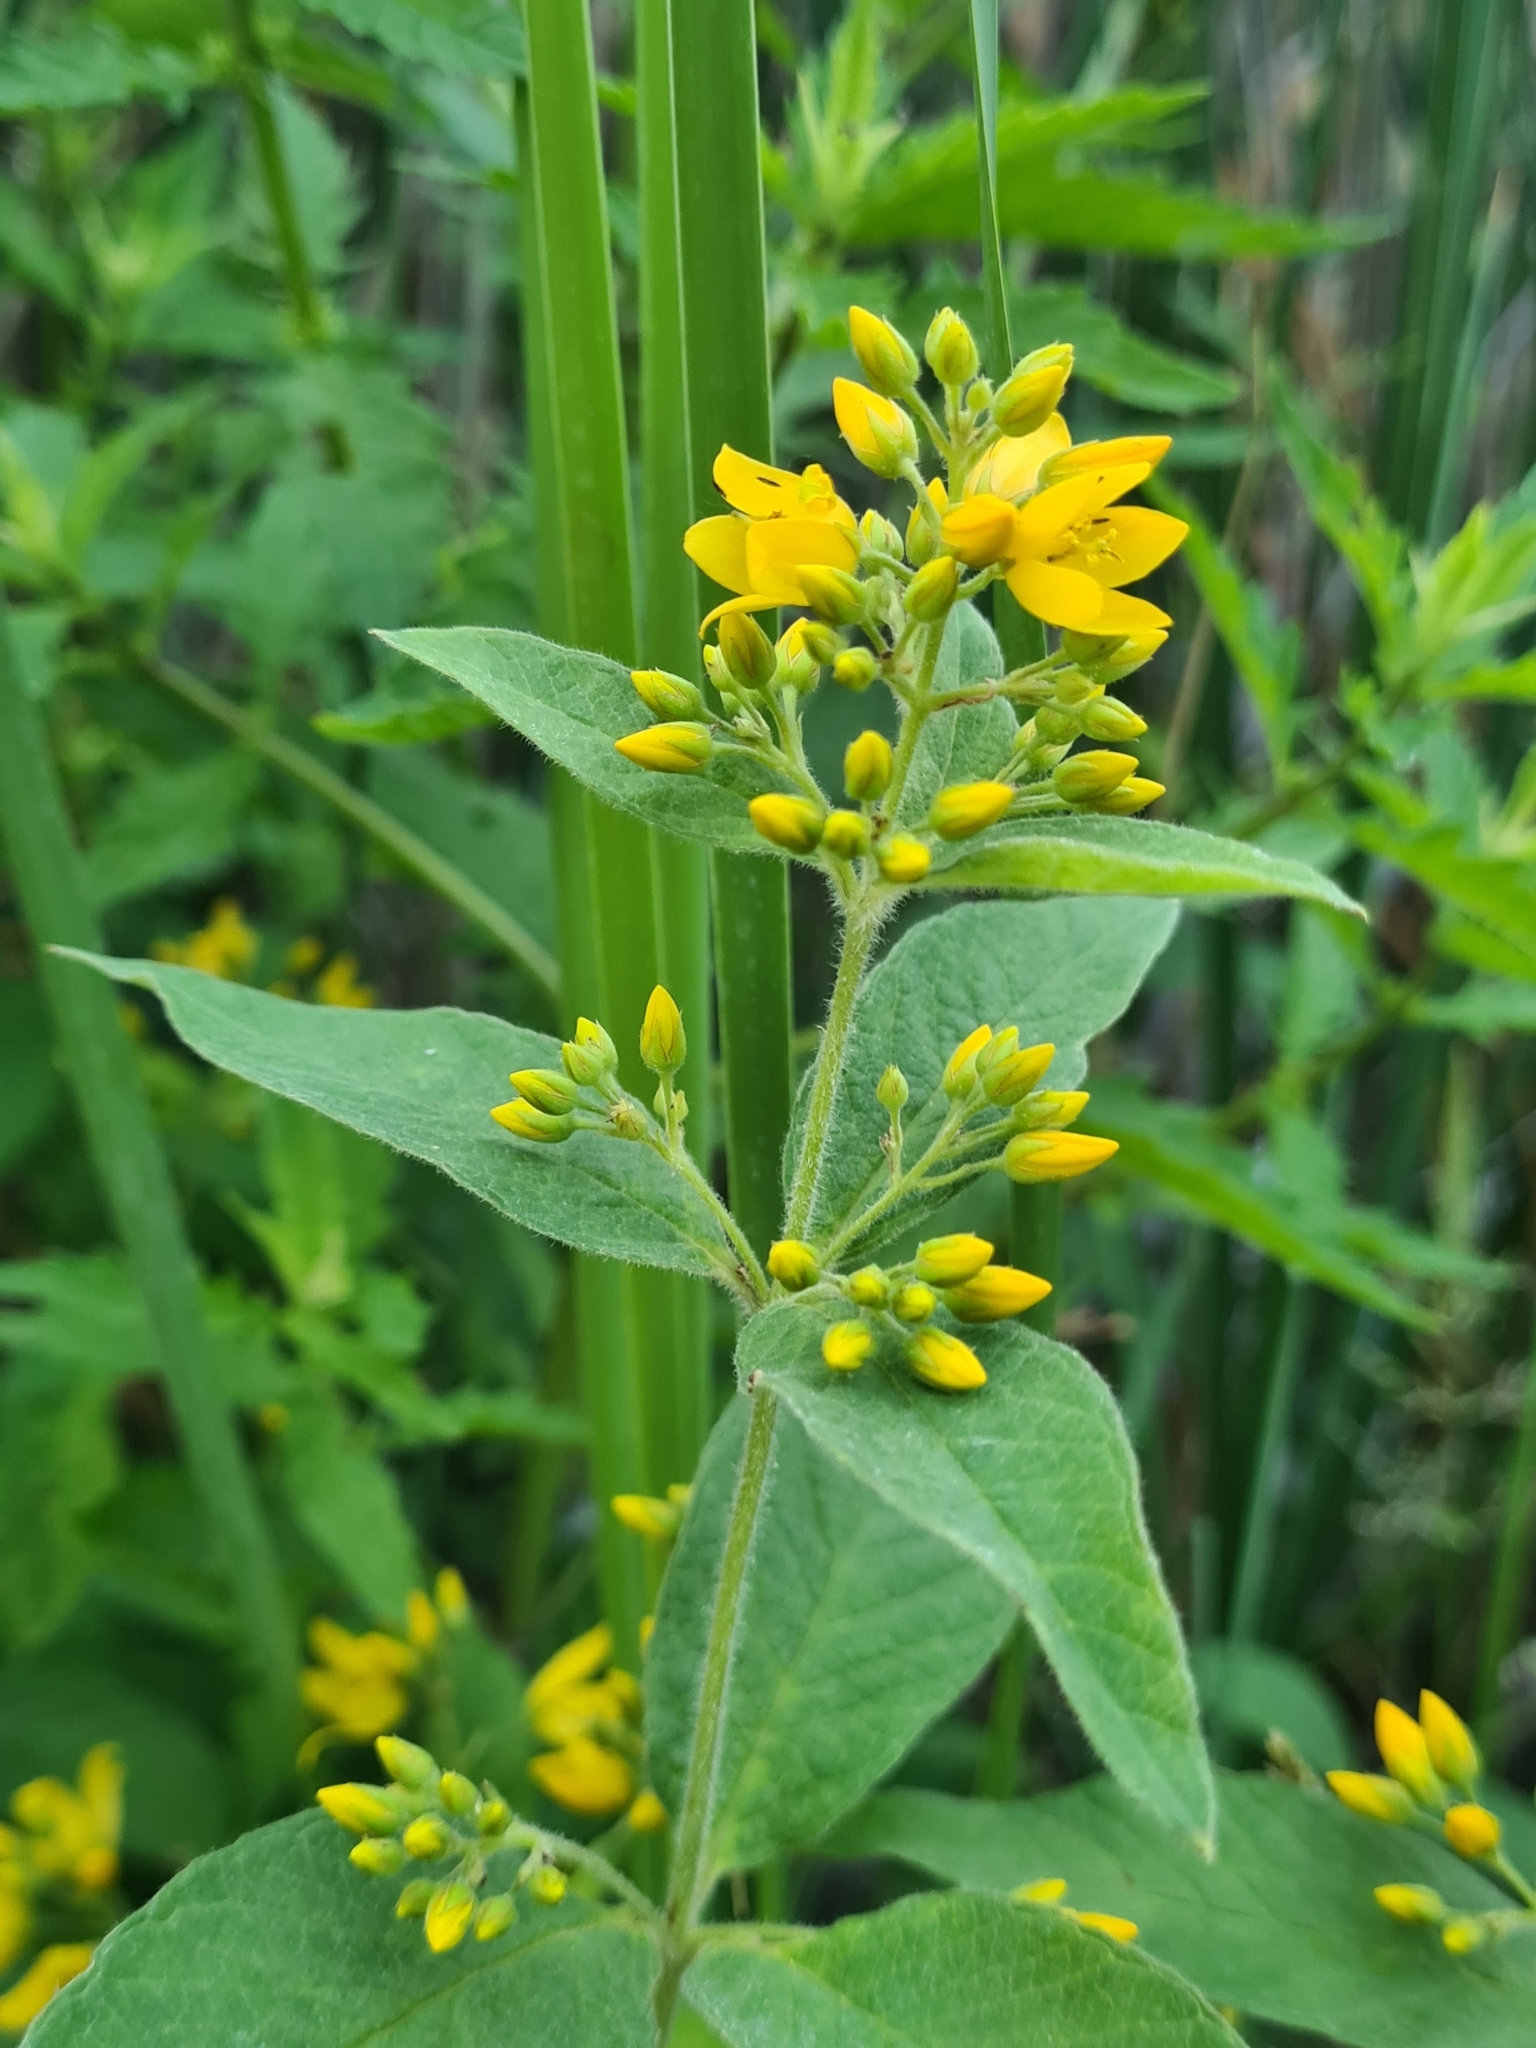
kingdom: Plantae
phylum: Tracheophyta
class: Magnoliopsida
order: Ericales
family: Primulaceae
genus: Lysimachia
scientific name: Lysimachia vulgaris
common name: Yellow loosestrife
